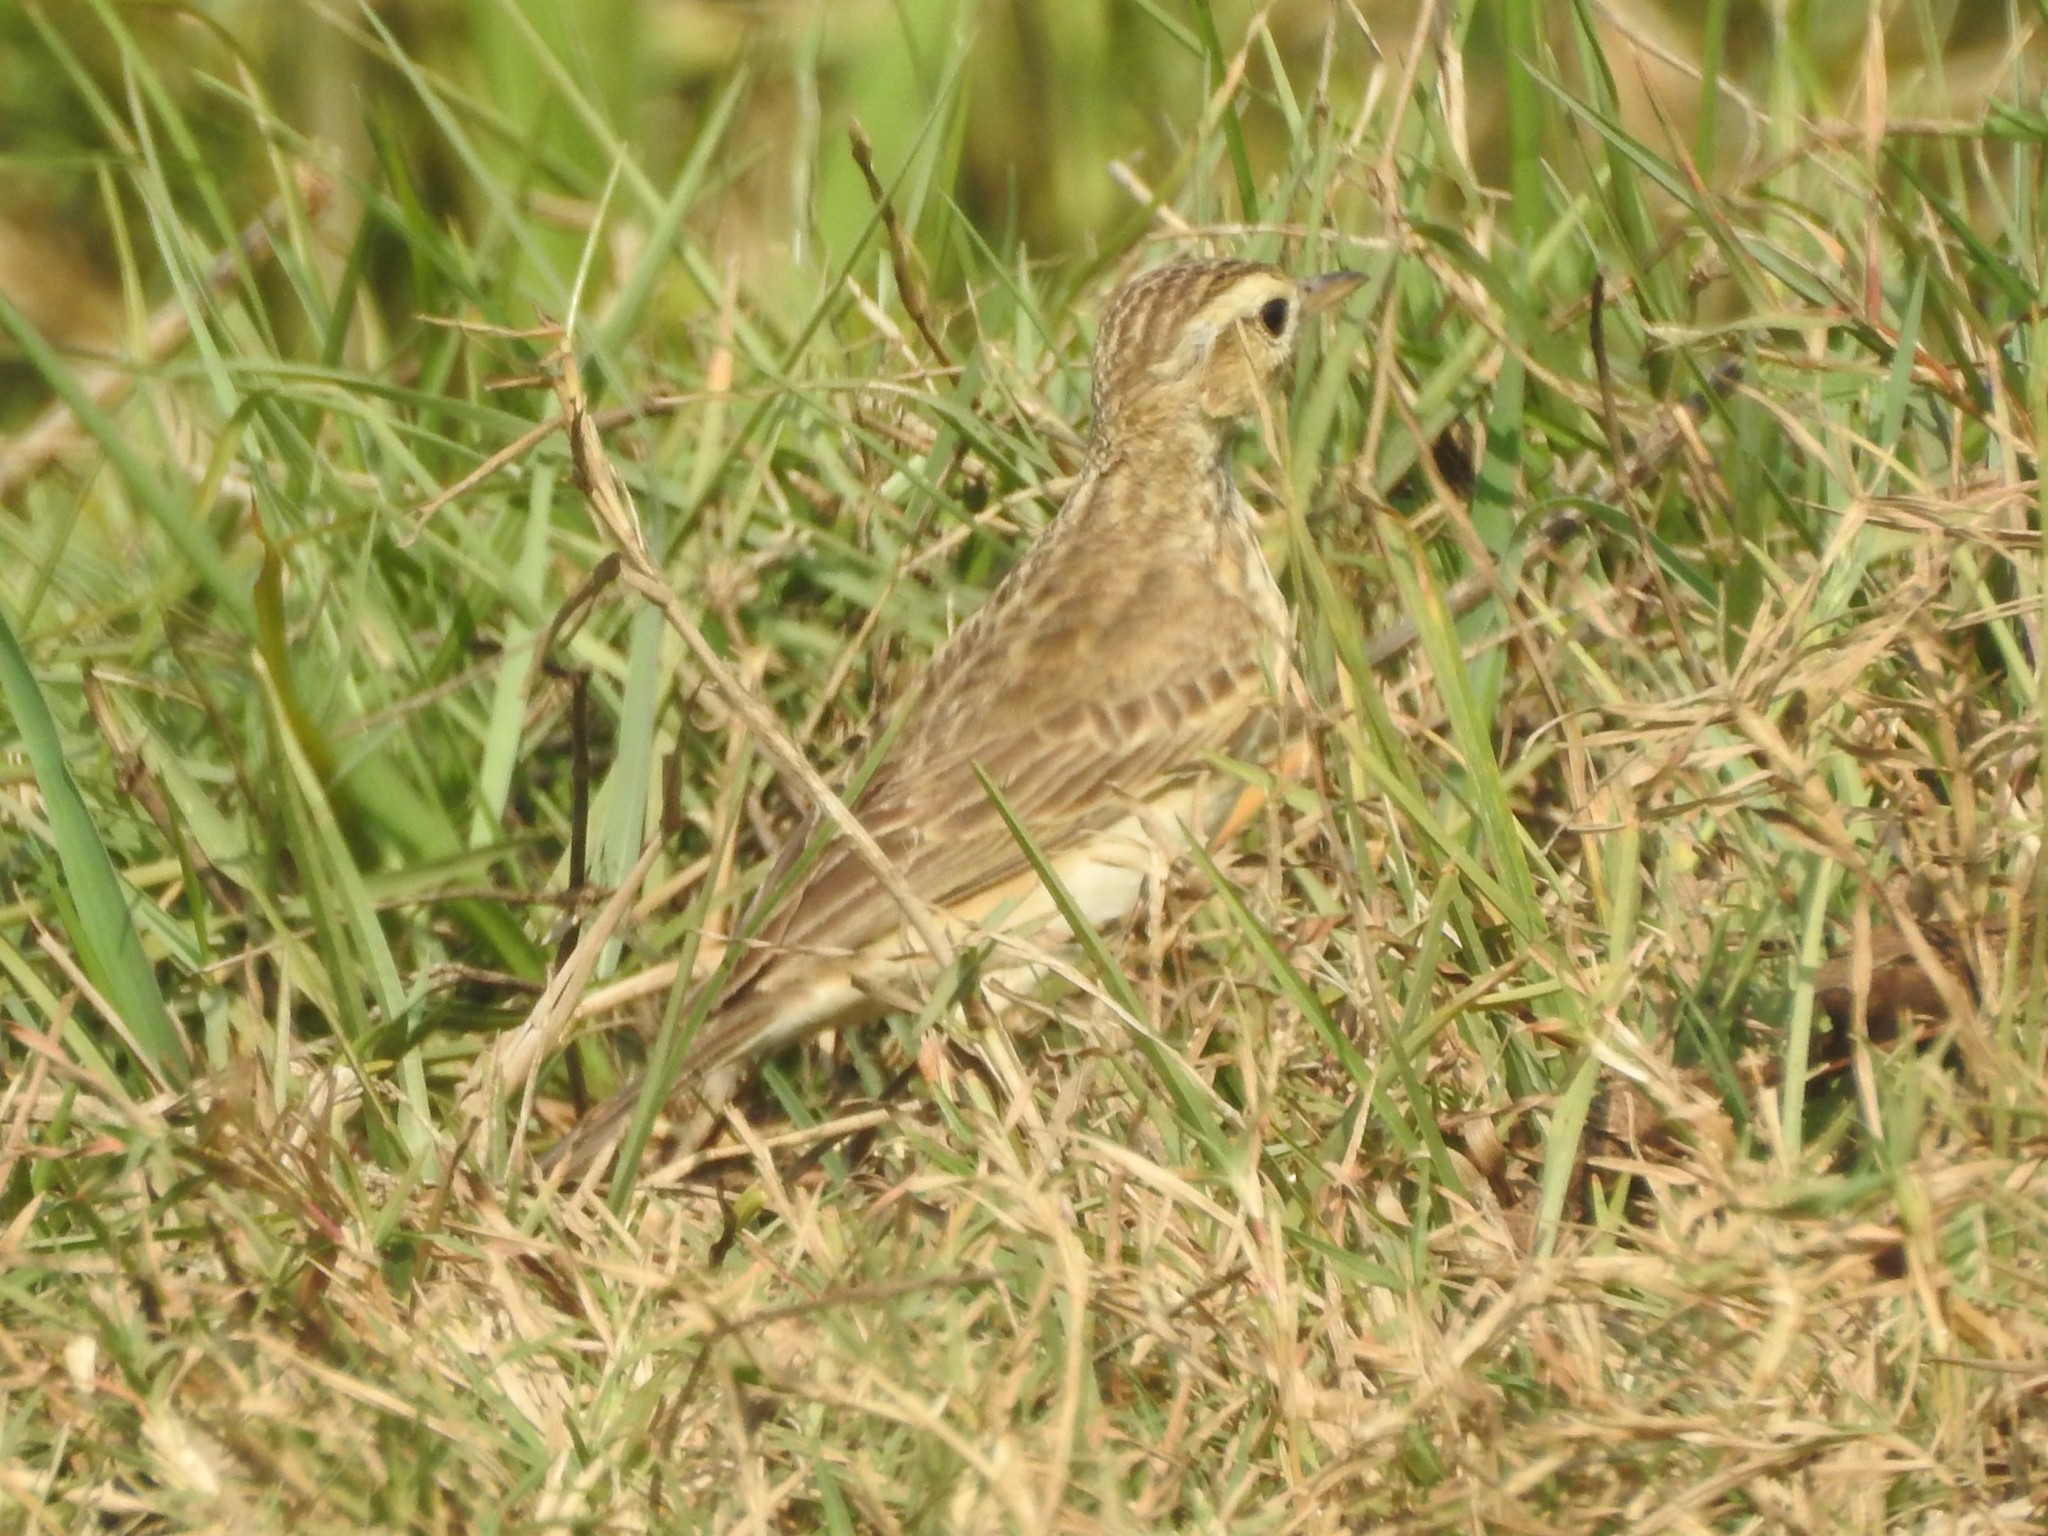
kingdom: Animalia
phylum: Chordata
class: Aves
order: Passeriformes
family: Motacillidae
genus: Anthus
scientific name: Anthus rufulus
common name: Paddyfield pipit
